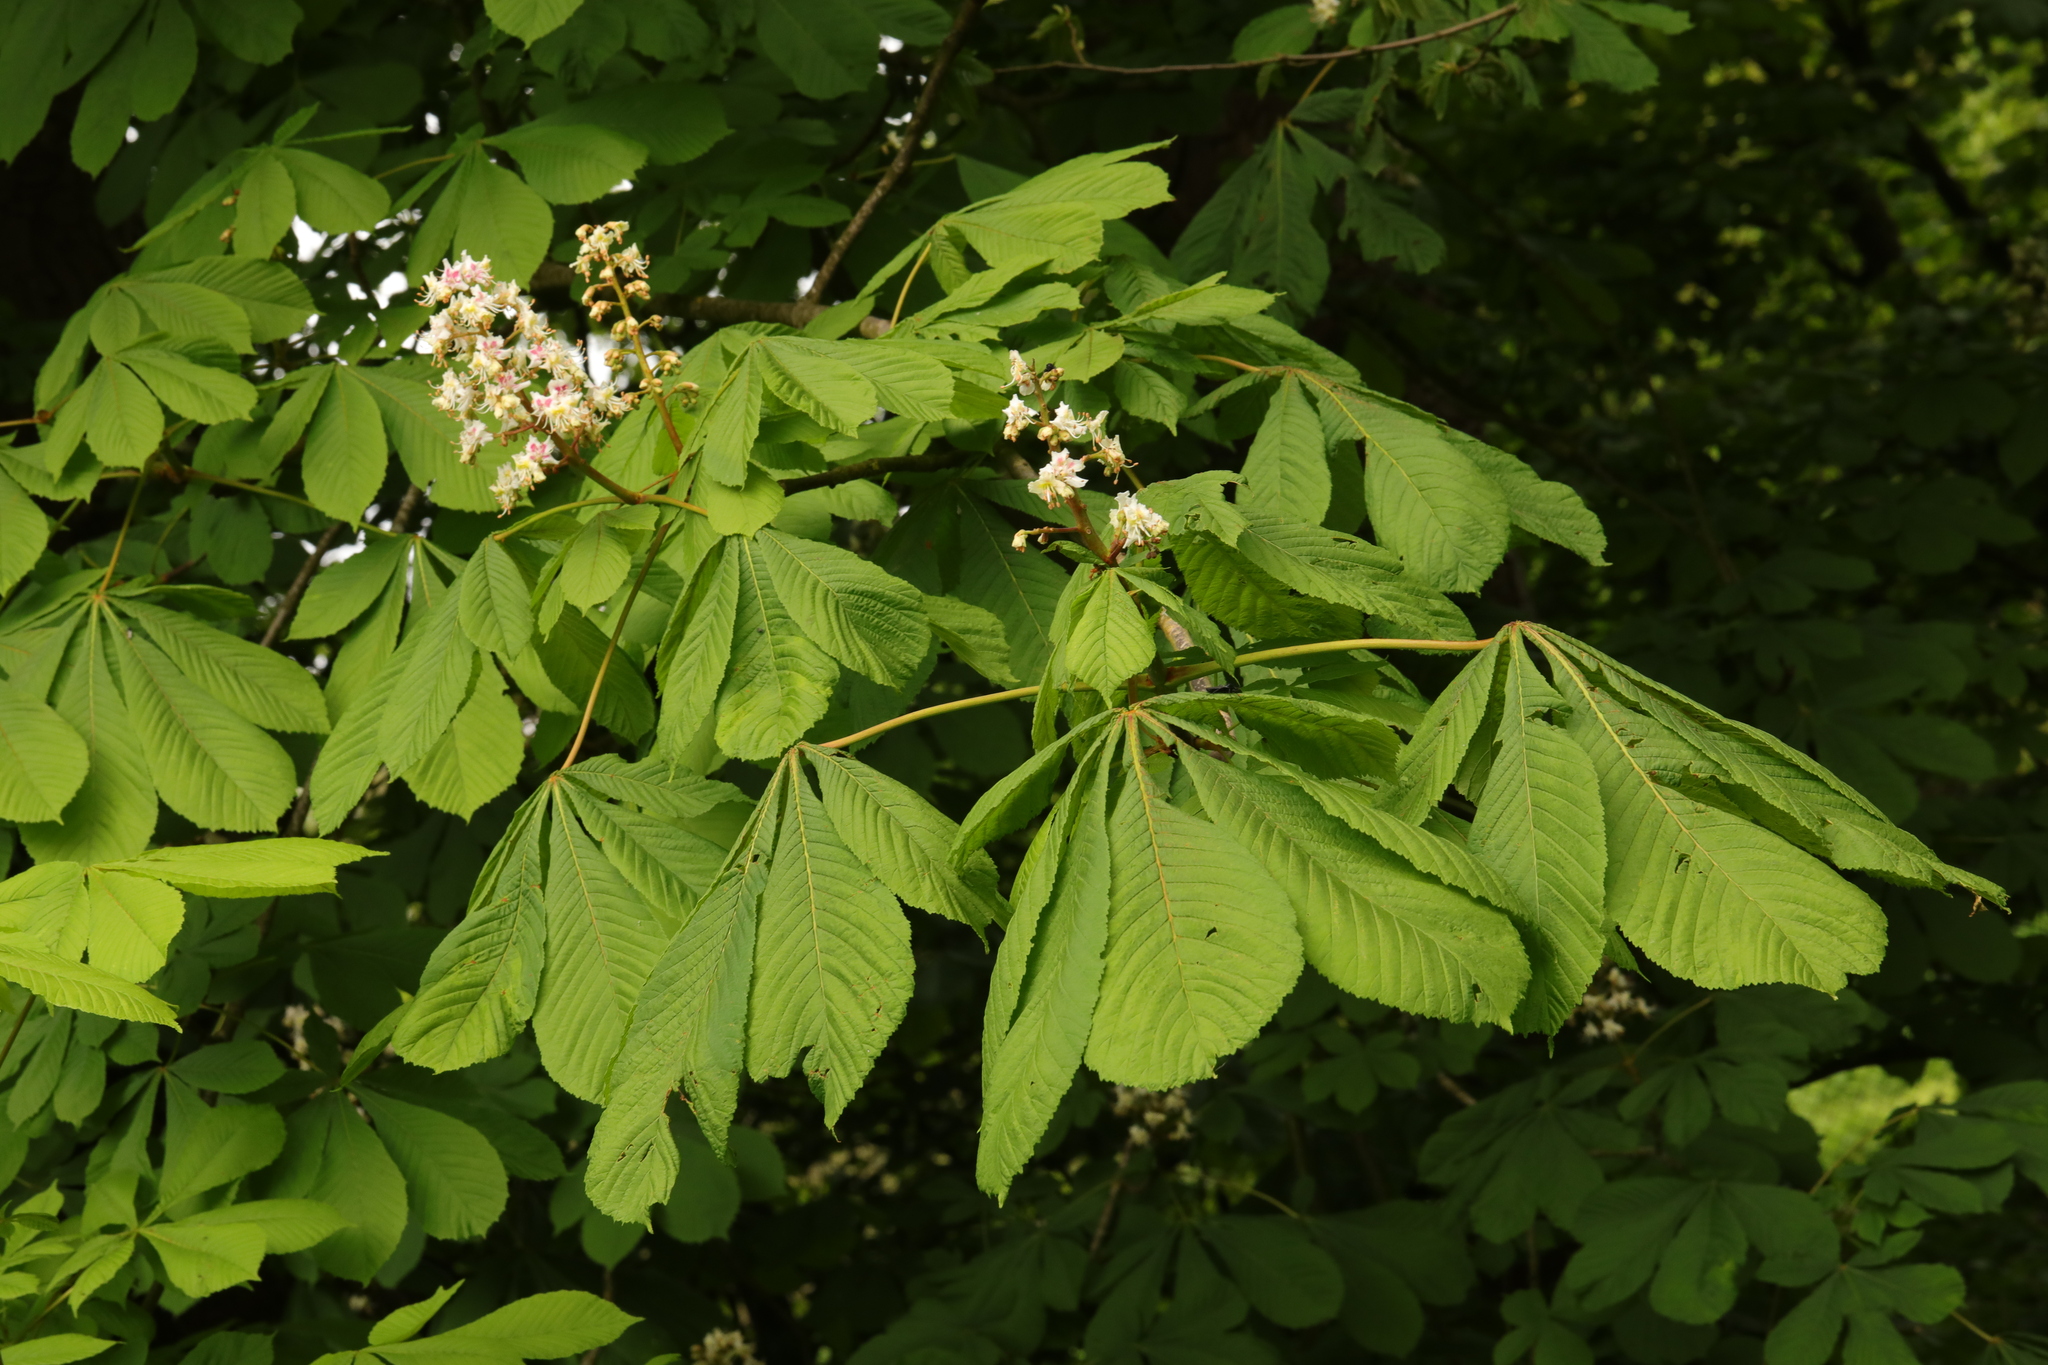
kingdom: Plantae
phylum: Tracheophyta
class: Magnoliopsida
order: Sapindales
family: Sapindaceae
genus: Aesculus
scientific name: Aesculus hippocastanum
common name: Horse-chestnut
